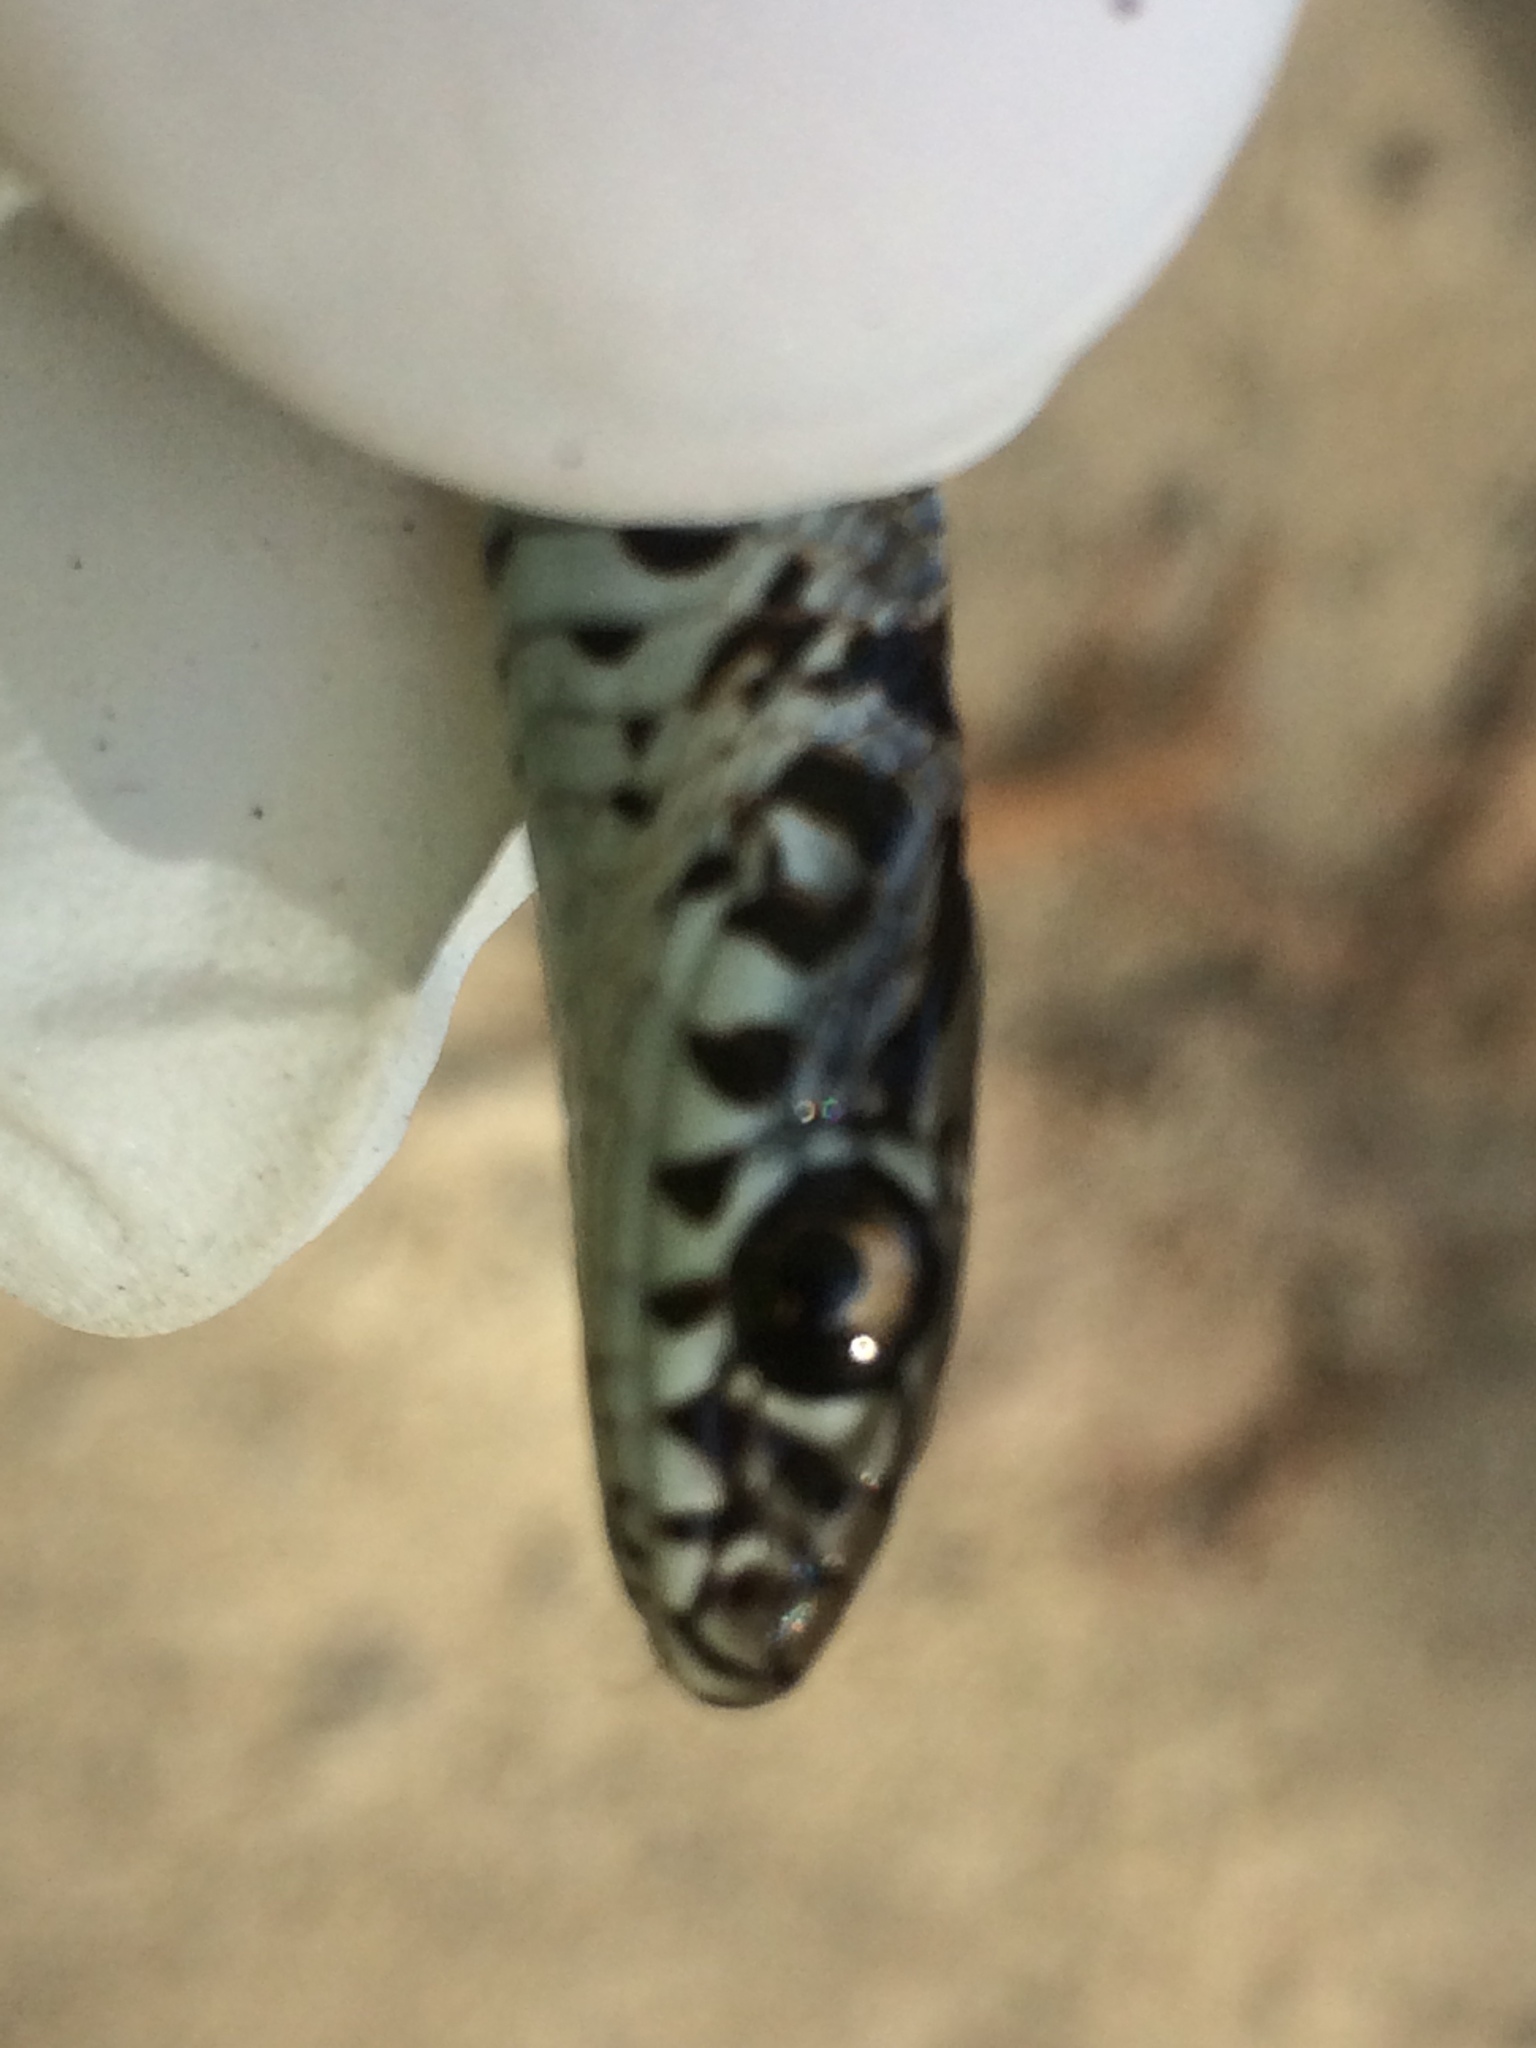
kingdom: Animalia
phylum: Chordata
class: Squamata
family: Colubridae
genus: Coluber
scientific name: Coluber constrictor
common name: Eastern racer
